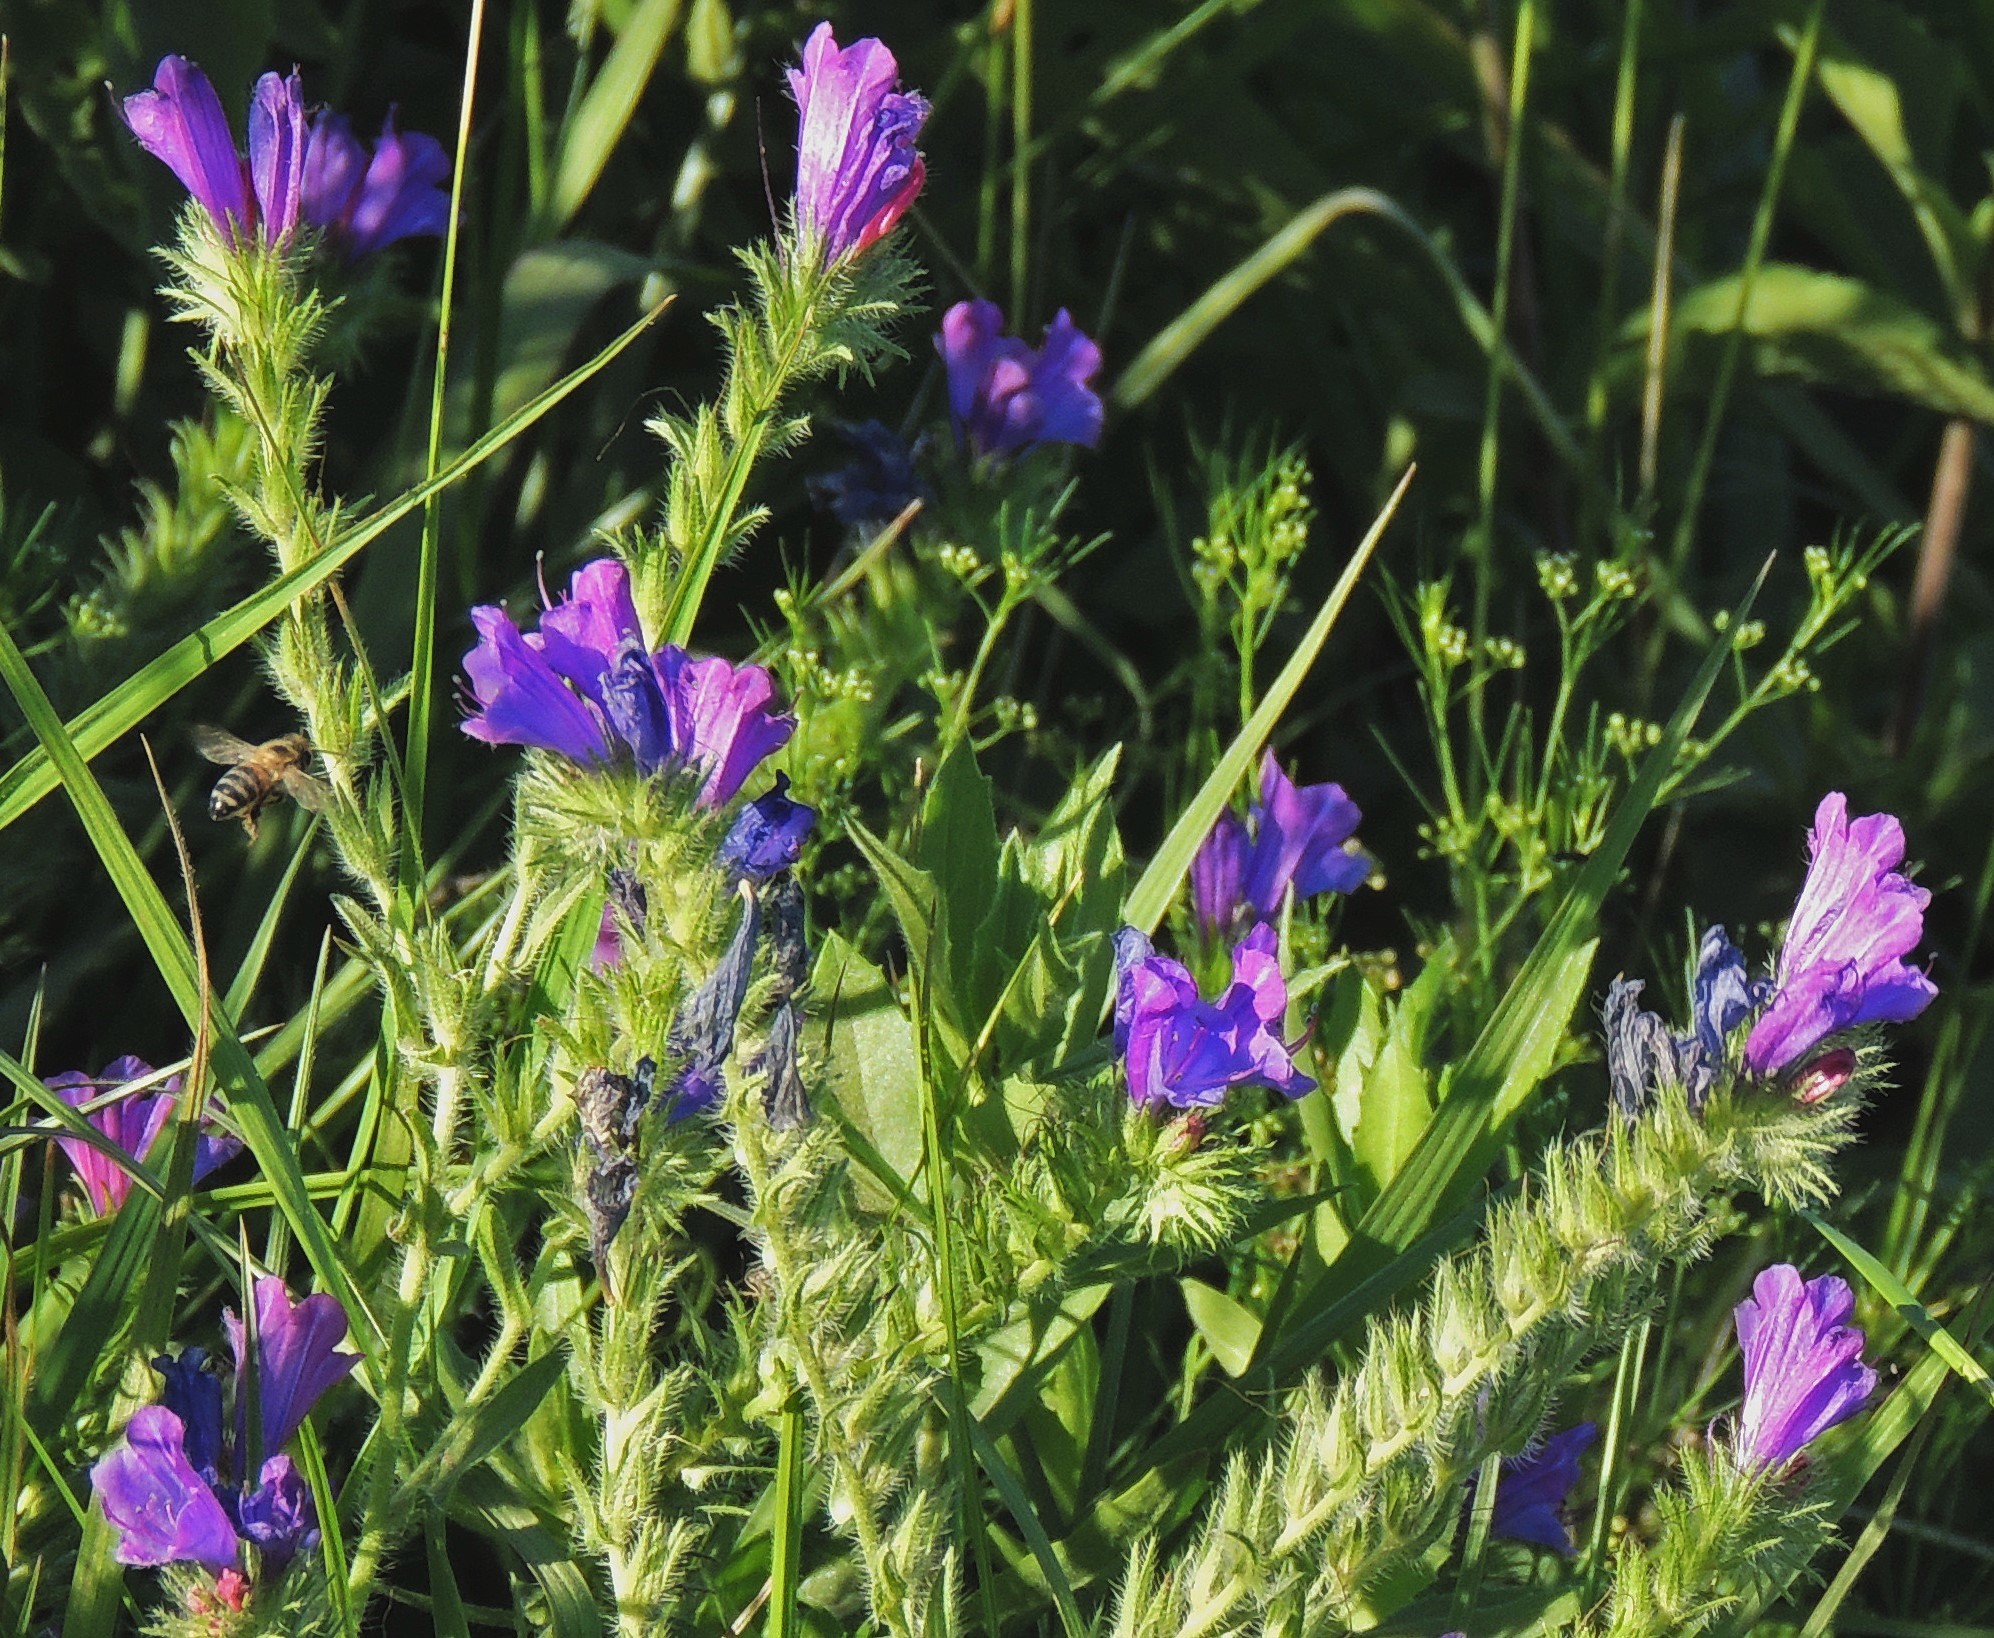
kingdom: Plantae
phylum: Tracheophyta
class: Magnoliopsida
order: Boraginales
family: Boraginaceae
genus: Echium
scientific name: Echium plantagineum
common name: Purple viper's-bugloss
